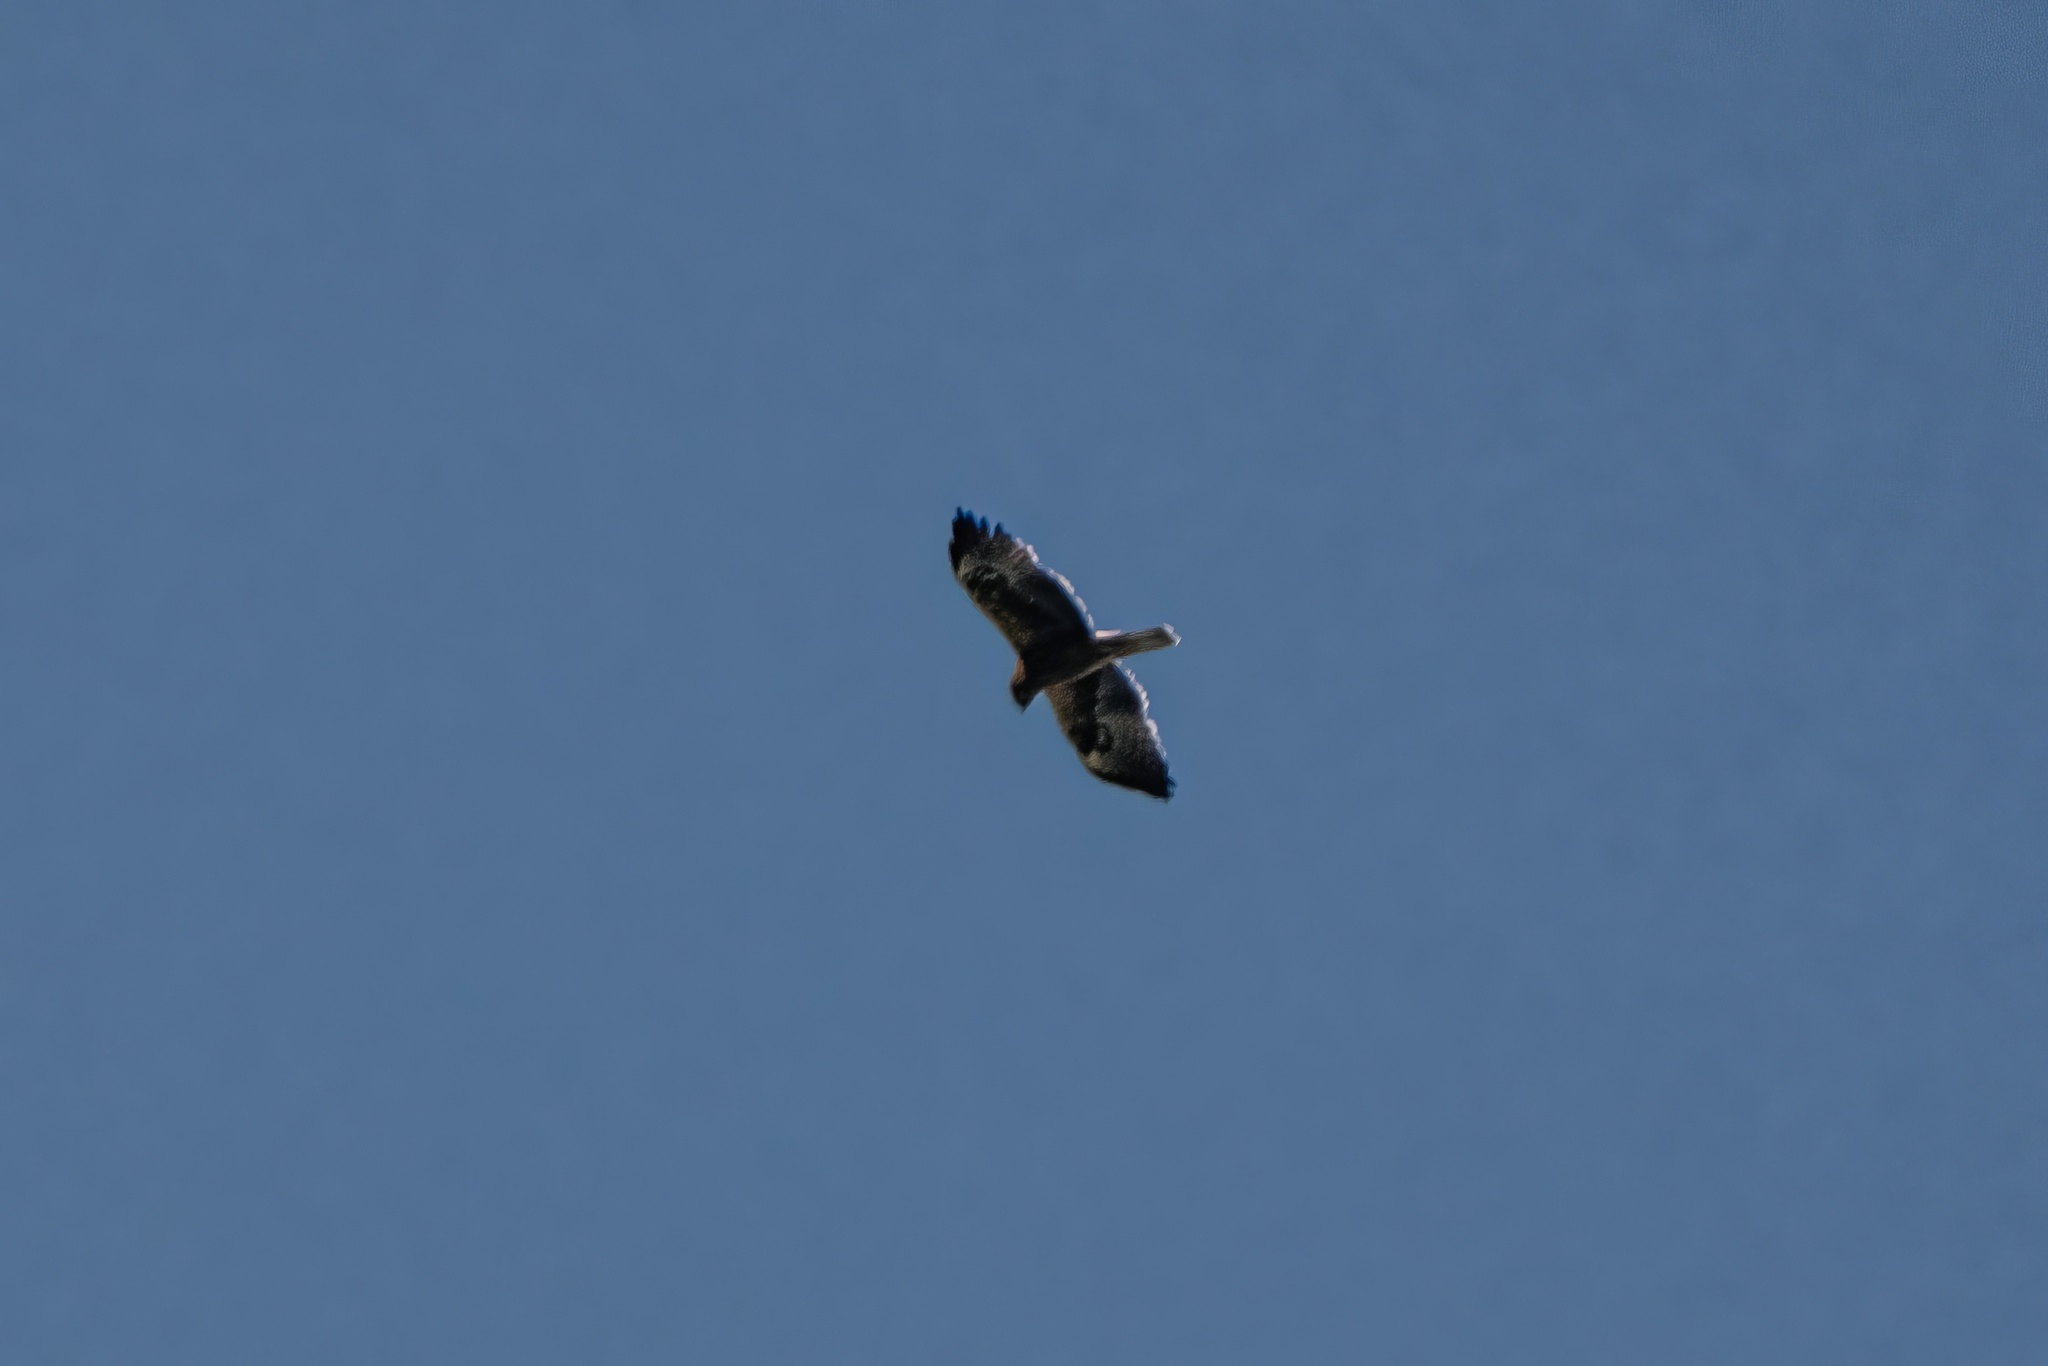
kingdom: Animalia
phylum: Chordata
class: Aves
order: Accipitriformes
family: Accipitridae
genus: Hieraaetus
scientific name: Hieraaetus pennatus
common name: Booted eagle
